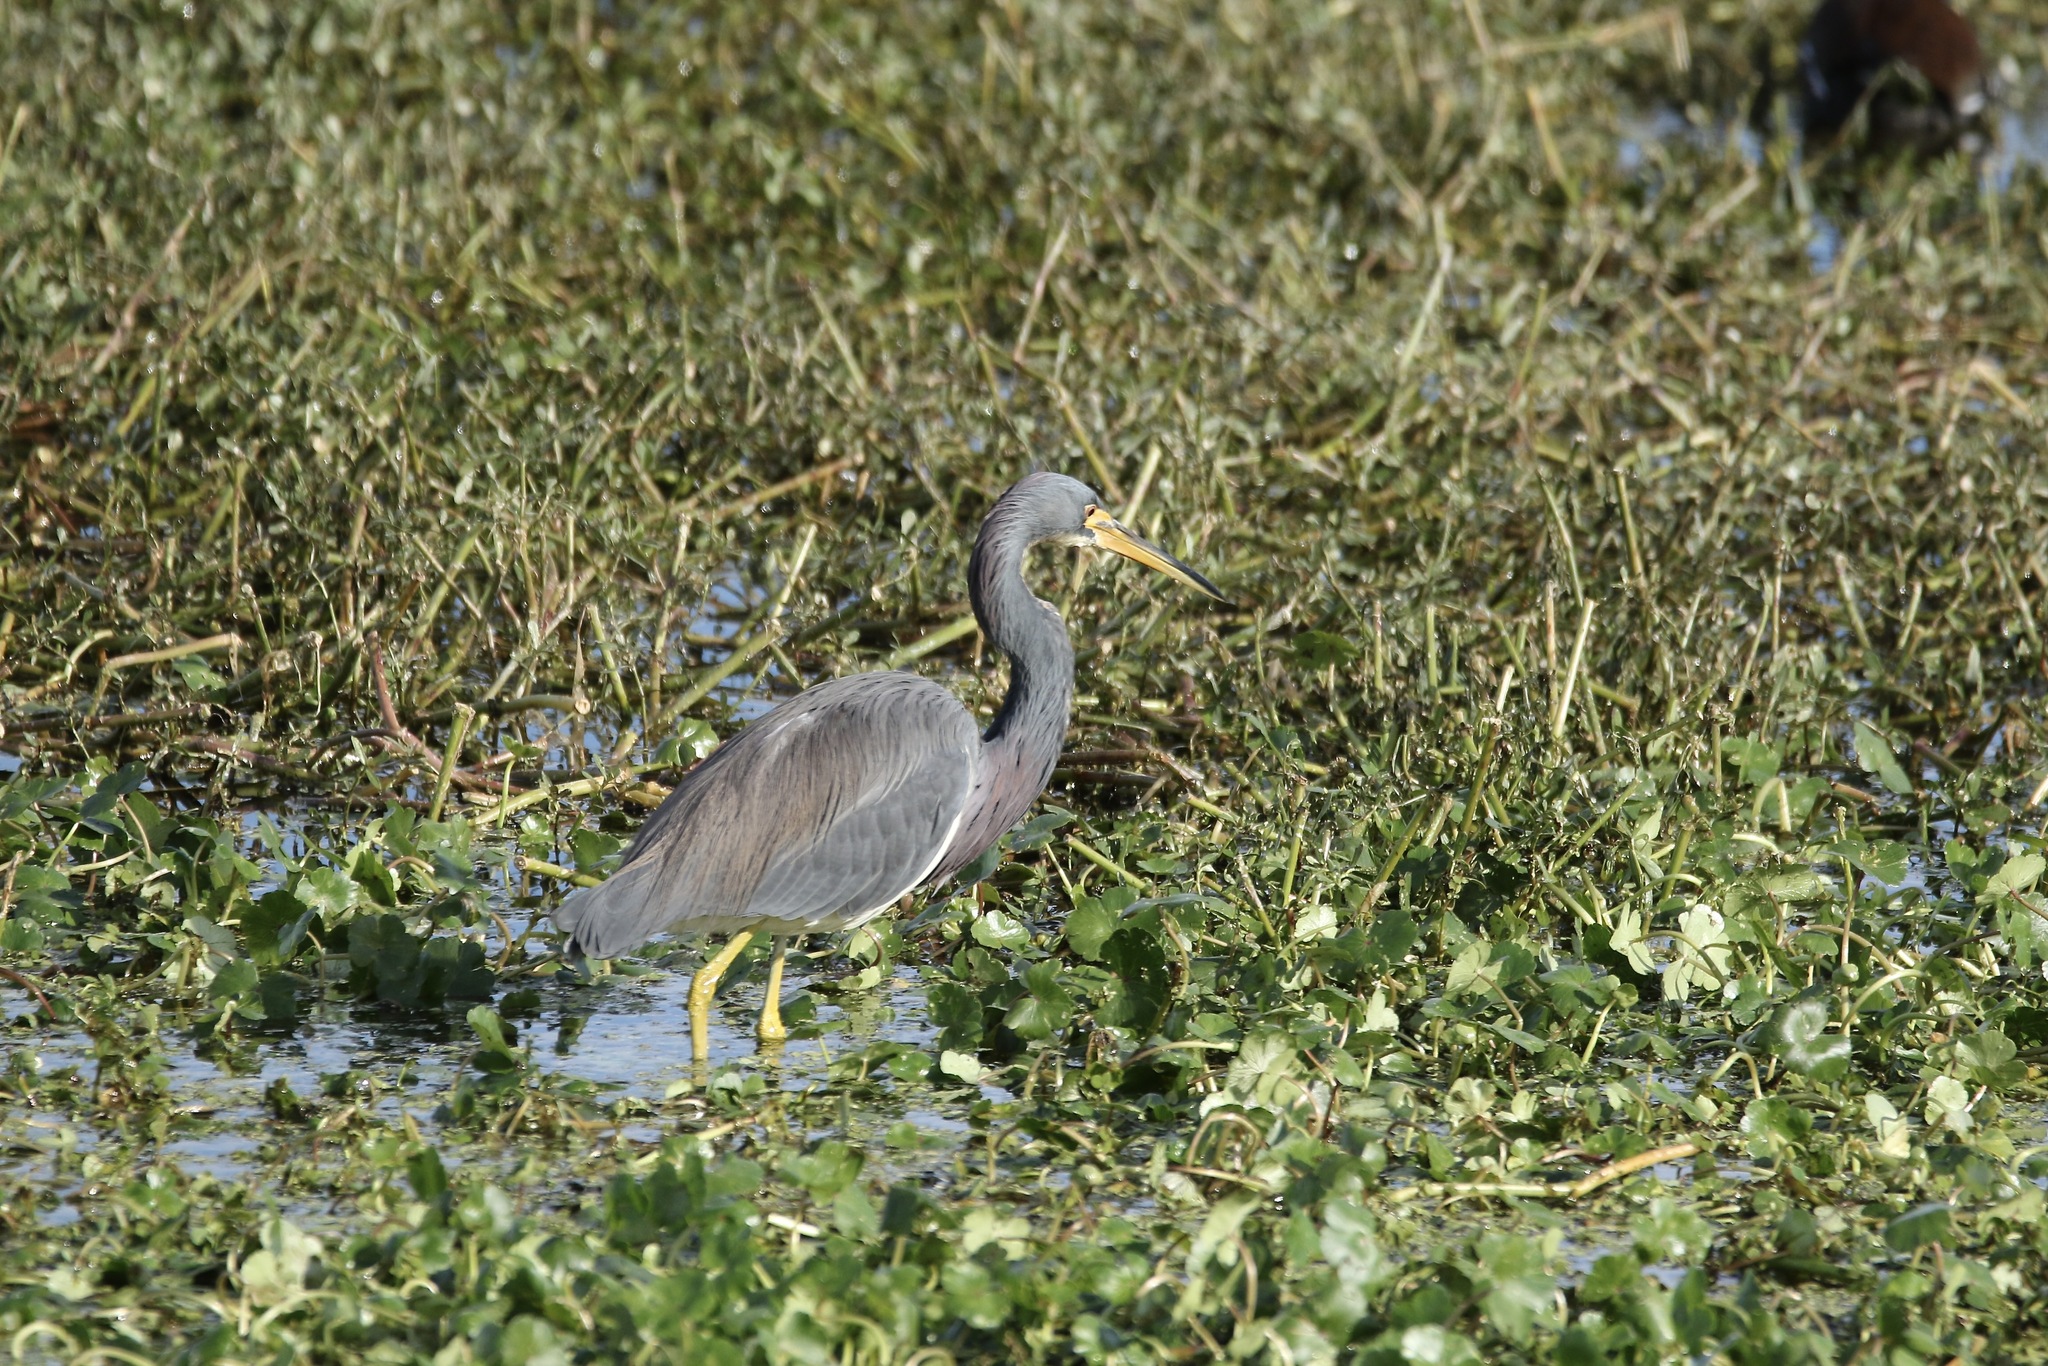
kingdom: Animalia
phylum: Chordata
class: Aves
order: Pelecaniformes
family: Ardeidae
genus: Egretta
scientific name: Egretta tricolor
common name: Tricolored heron
